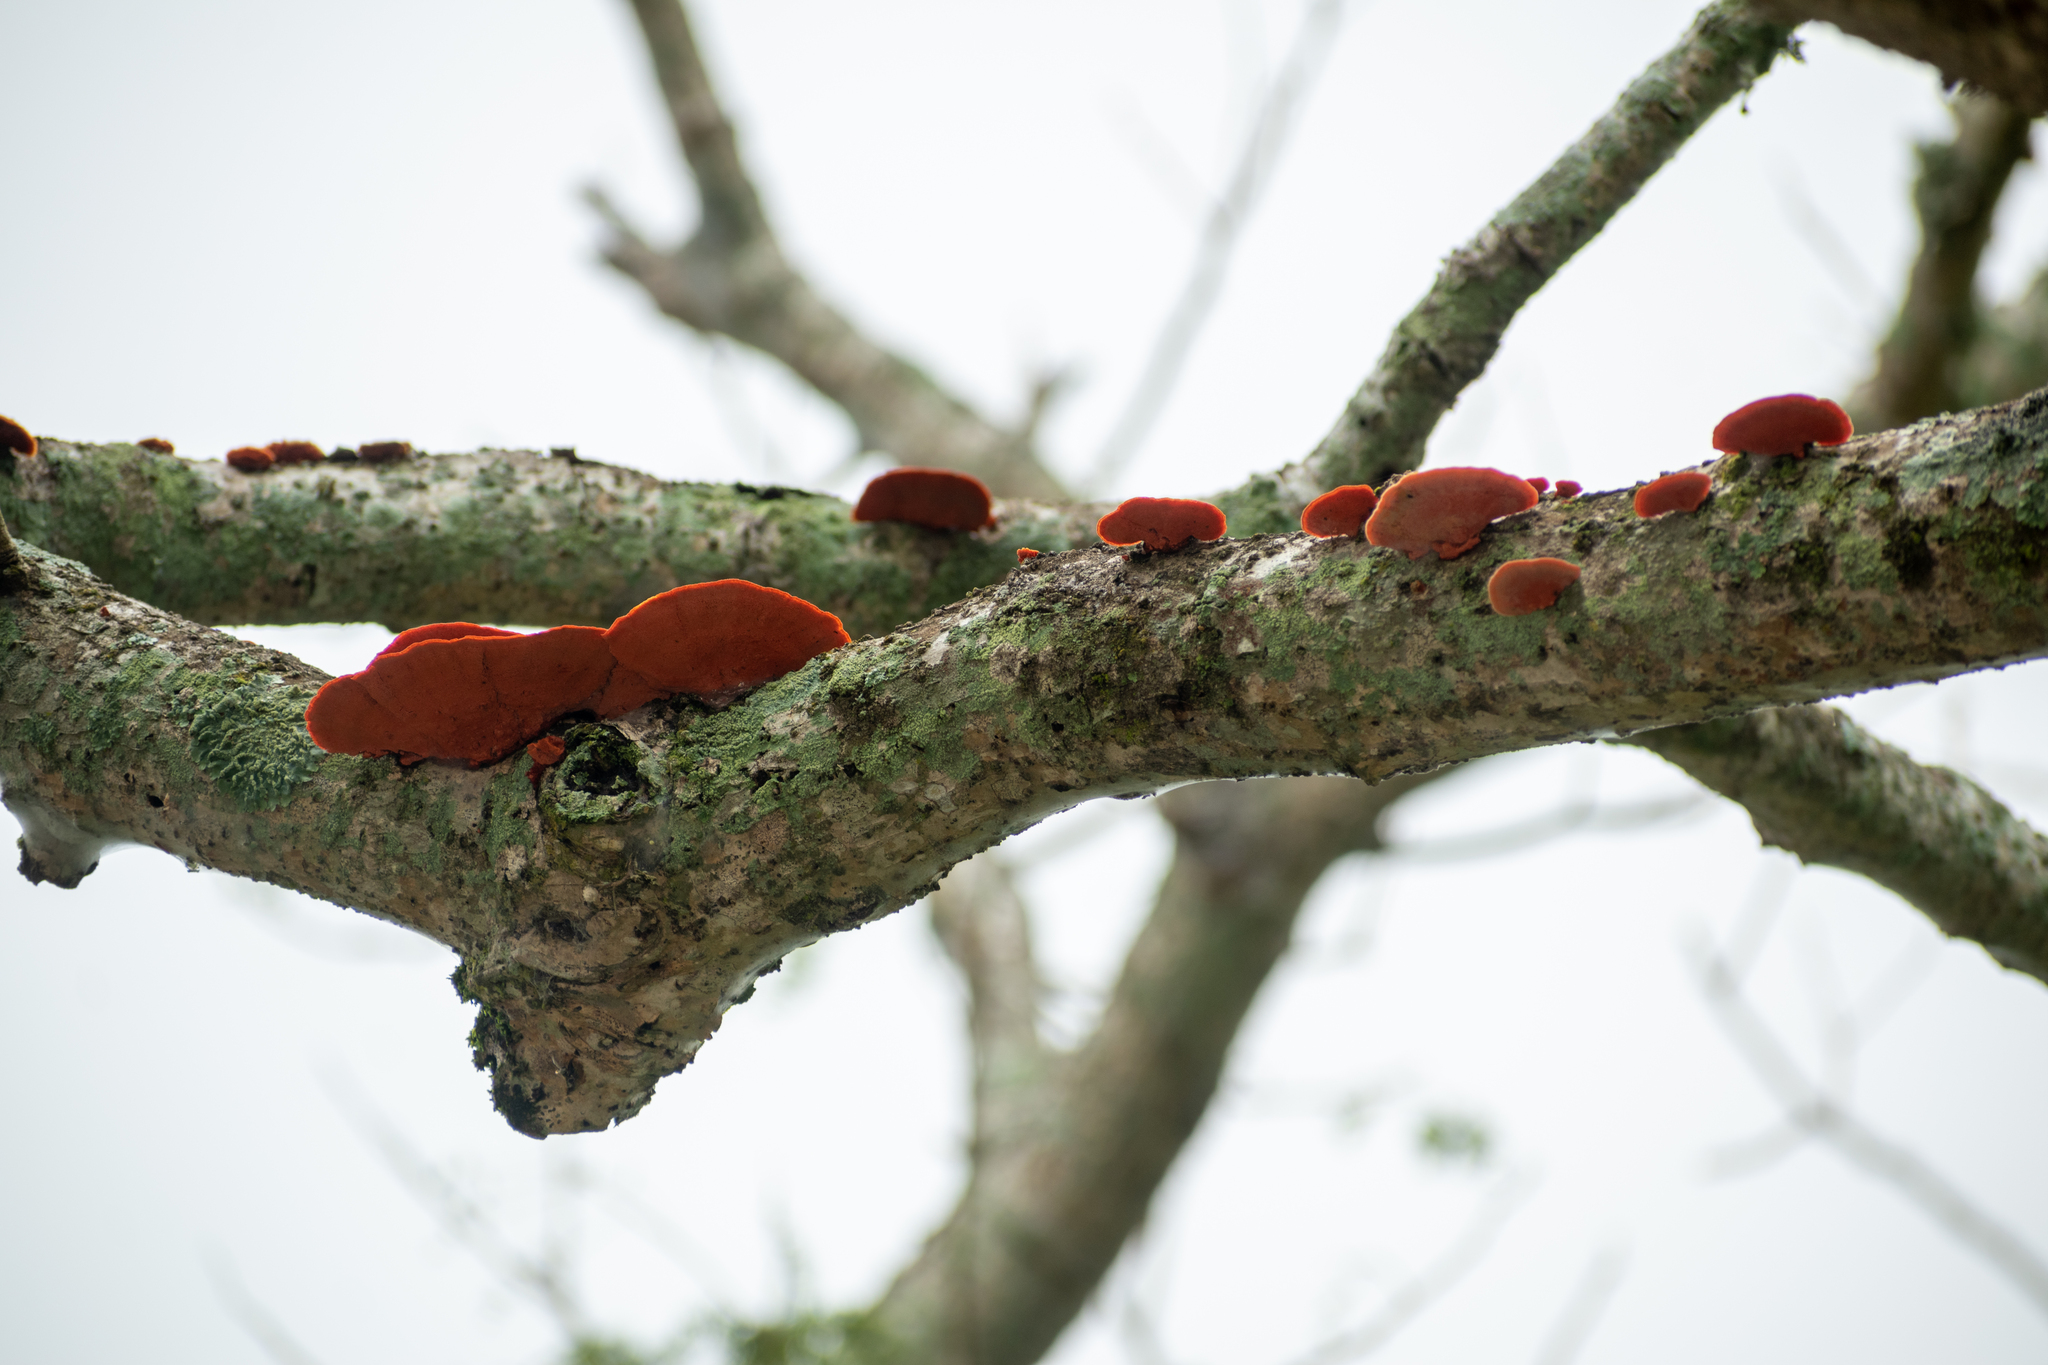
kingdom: Fungi
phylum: Basidiomycota
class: Agaricomycetes
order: Polyporales
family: Polyporaceae
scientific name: Polyporaceae
